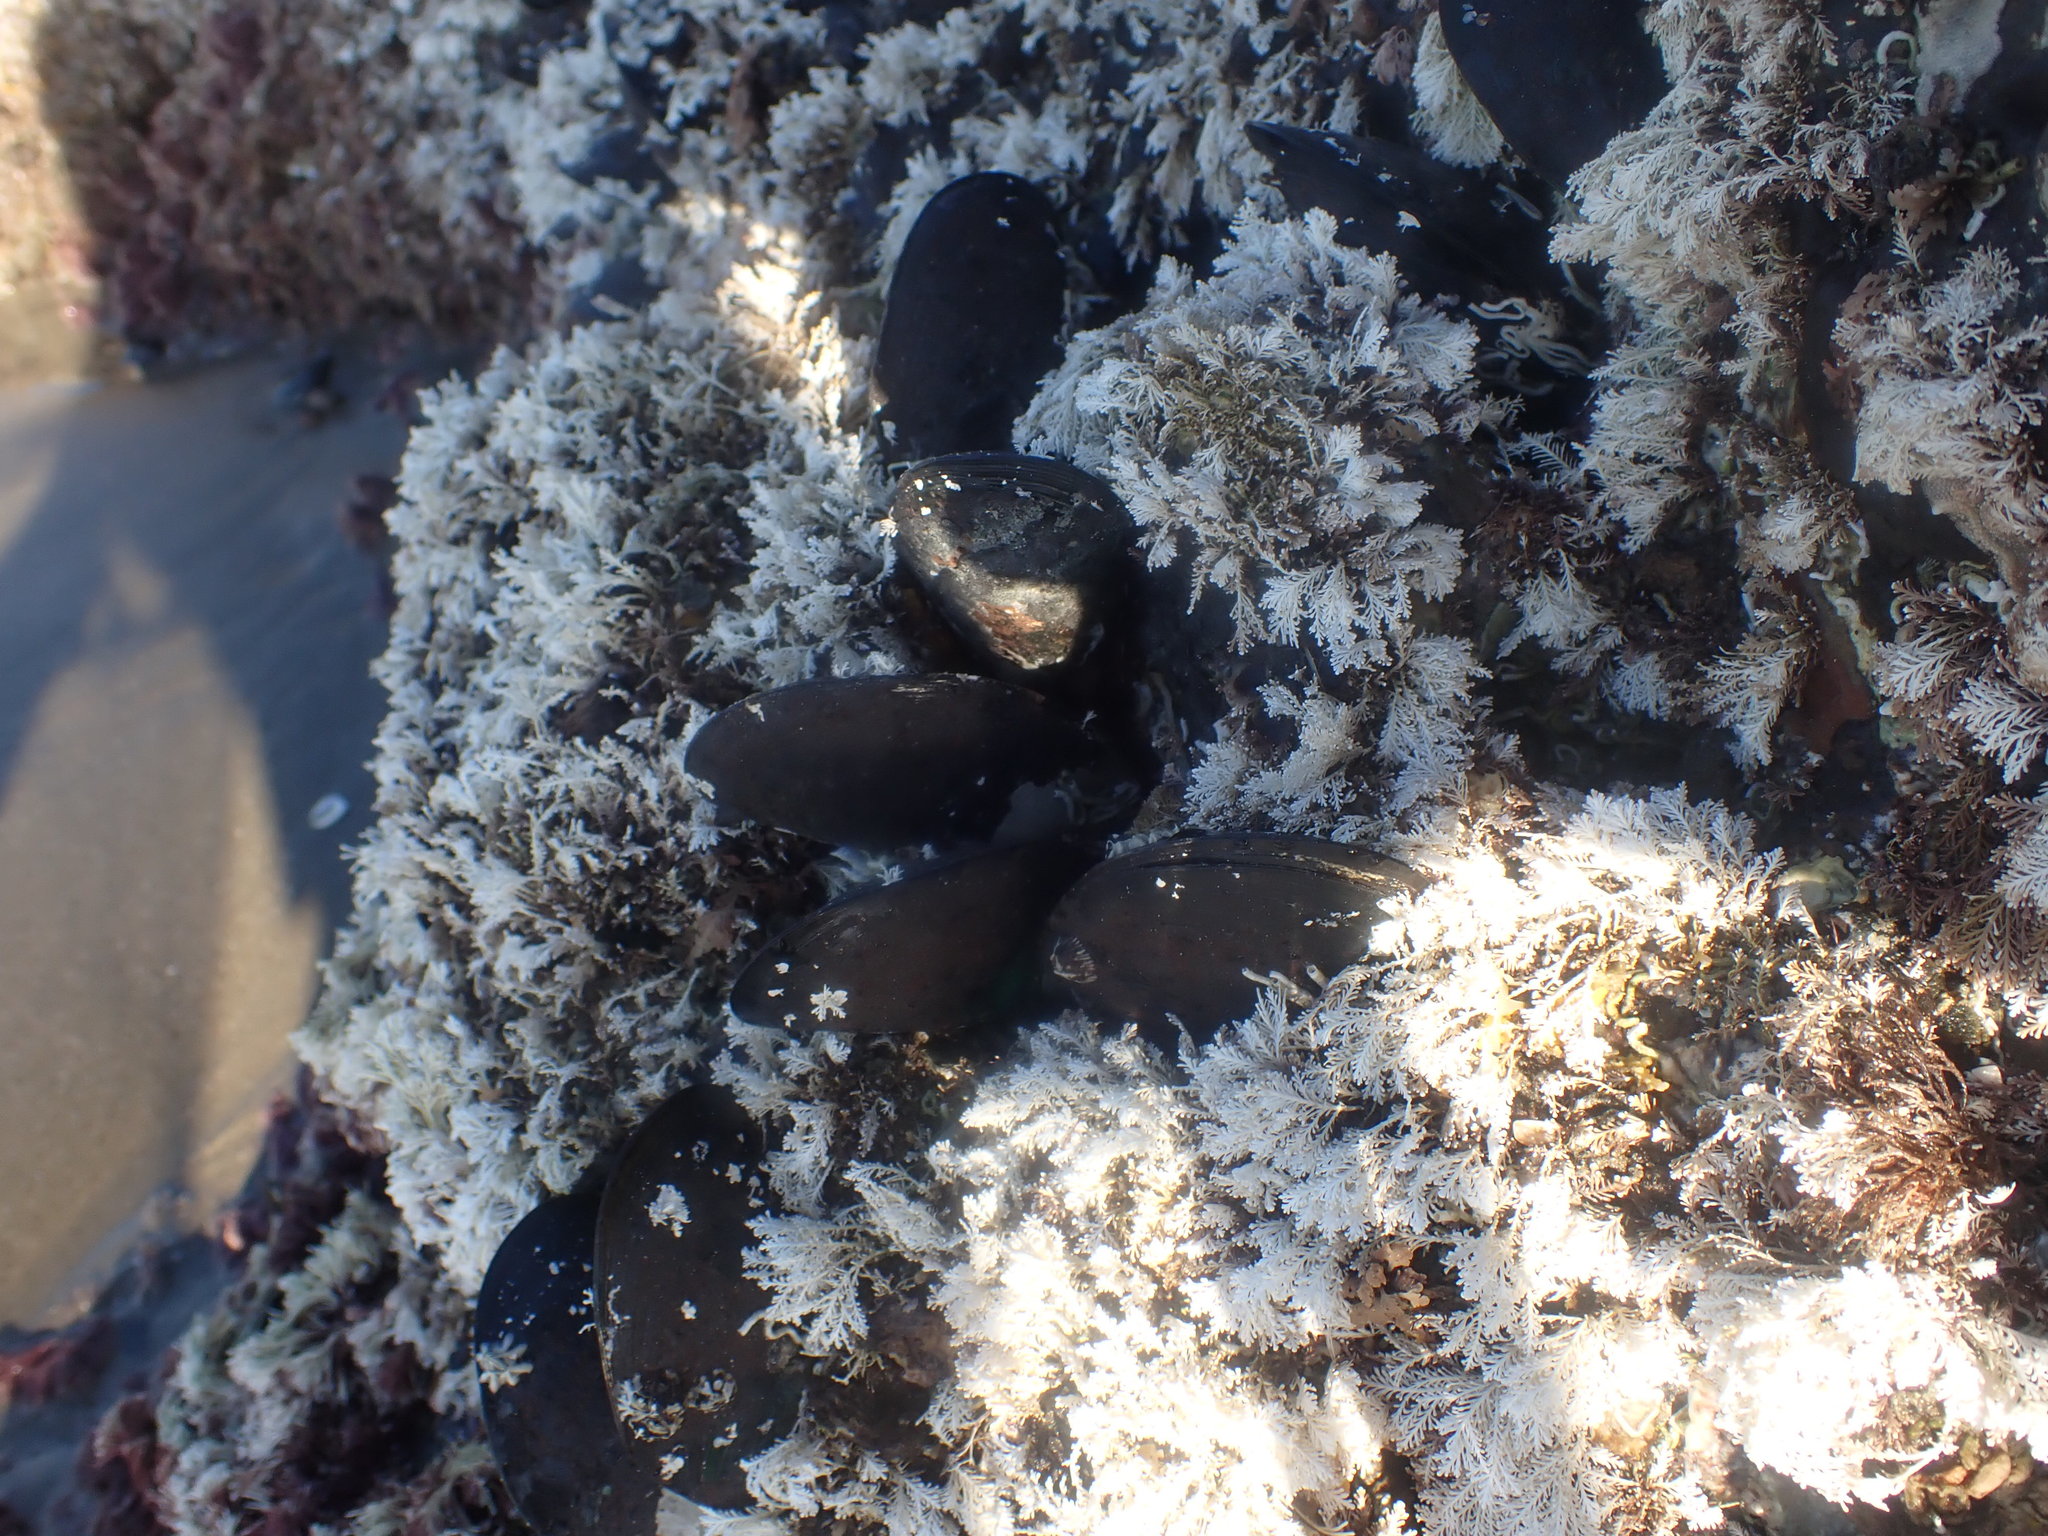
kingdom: Animalia
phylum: Mollusca
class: Bivalvia
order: Mytilida
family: Mytilidae
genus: Perna
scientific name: Perna canaliculus
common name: New zealand greenshelltm
